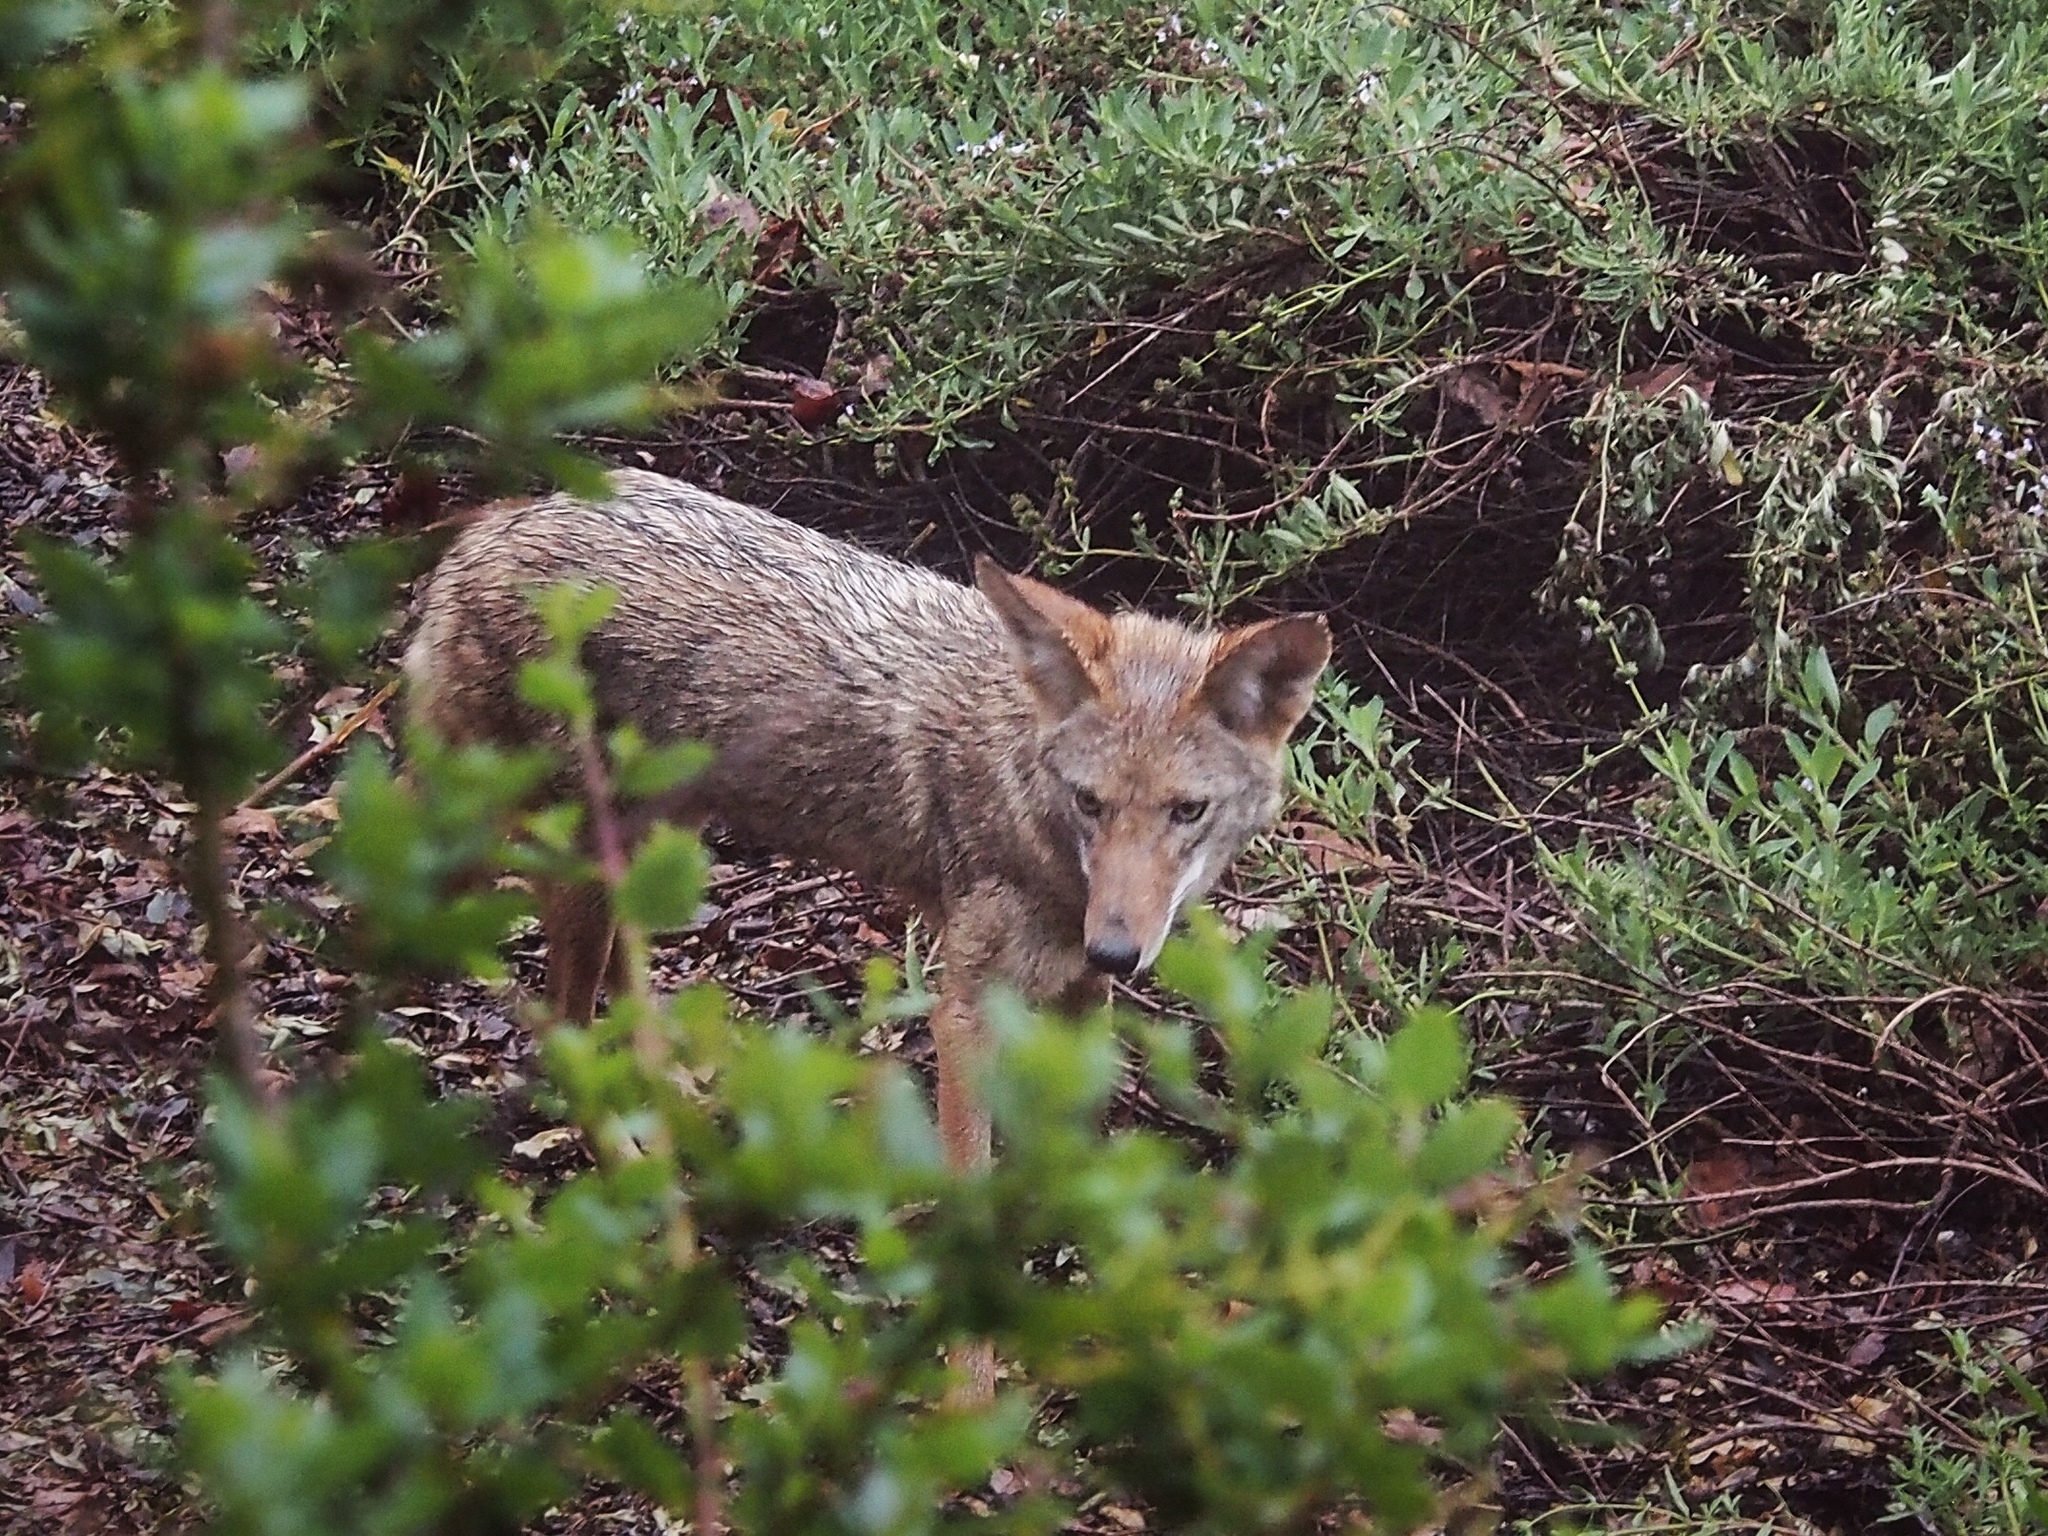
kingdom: Animalia
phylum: Chordata
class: Mammalia
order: Carnivora
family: Canidae
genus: Canis
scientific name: Canis latrans
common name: Coyote
